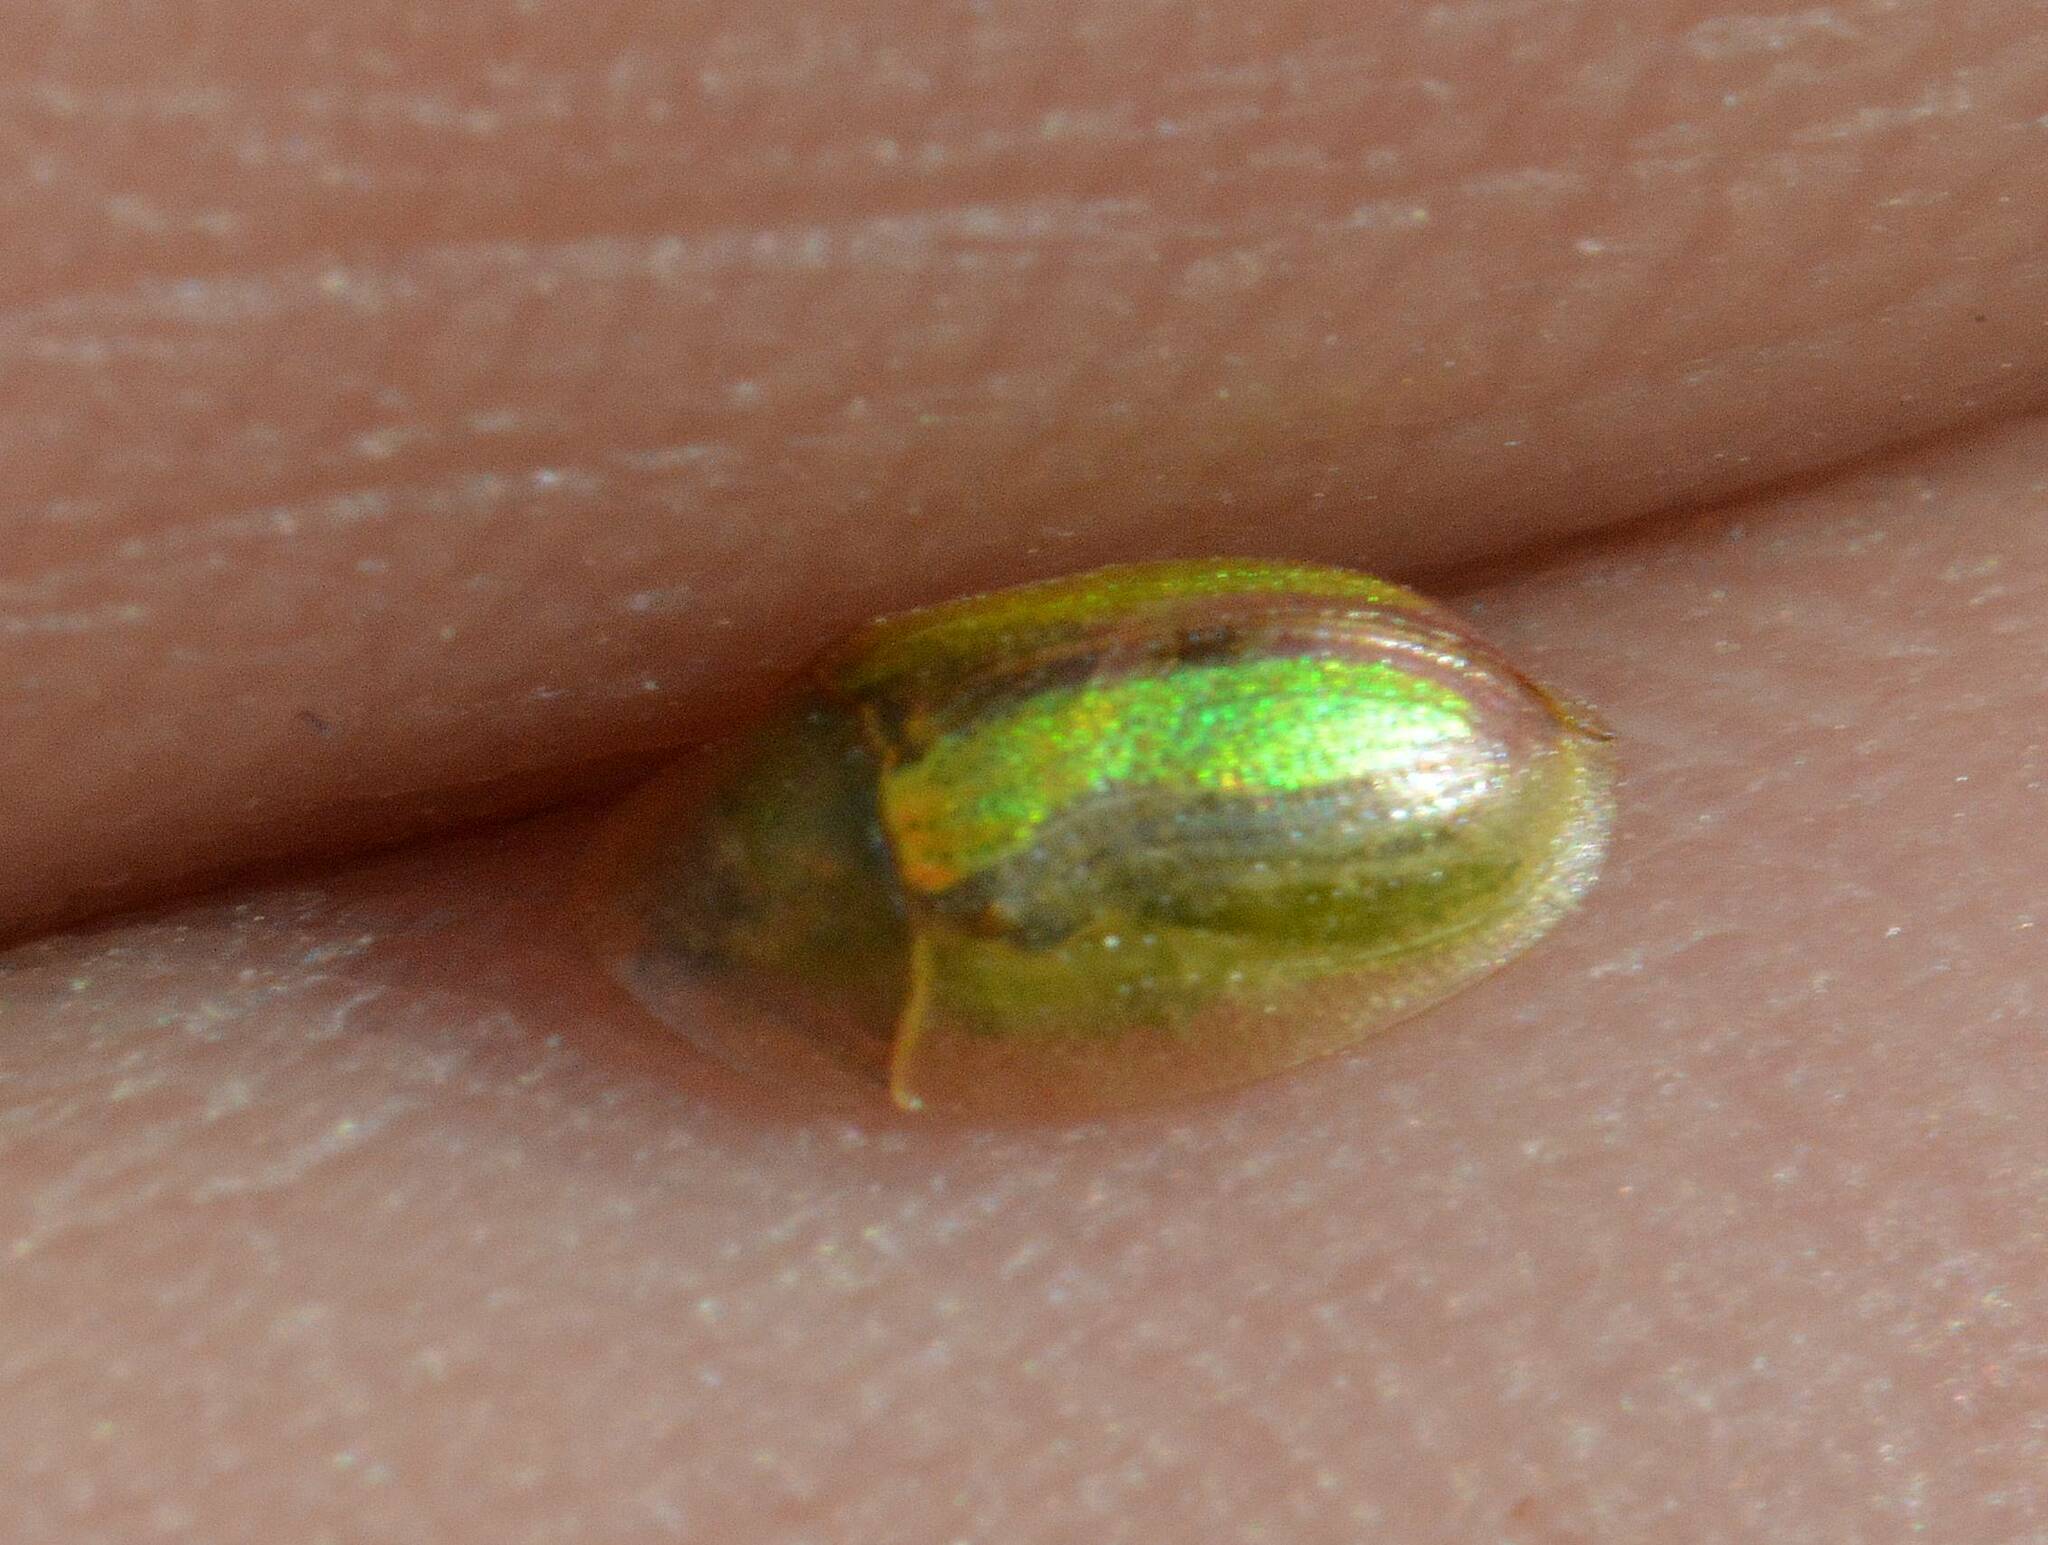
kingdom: Animalia
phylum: Arthropoda
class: Insecta
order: Coleoptera
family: Chrysomelidae
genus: Cassida
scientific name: Cassida vittata
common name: Bordered tortoise beetle
